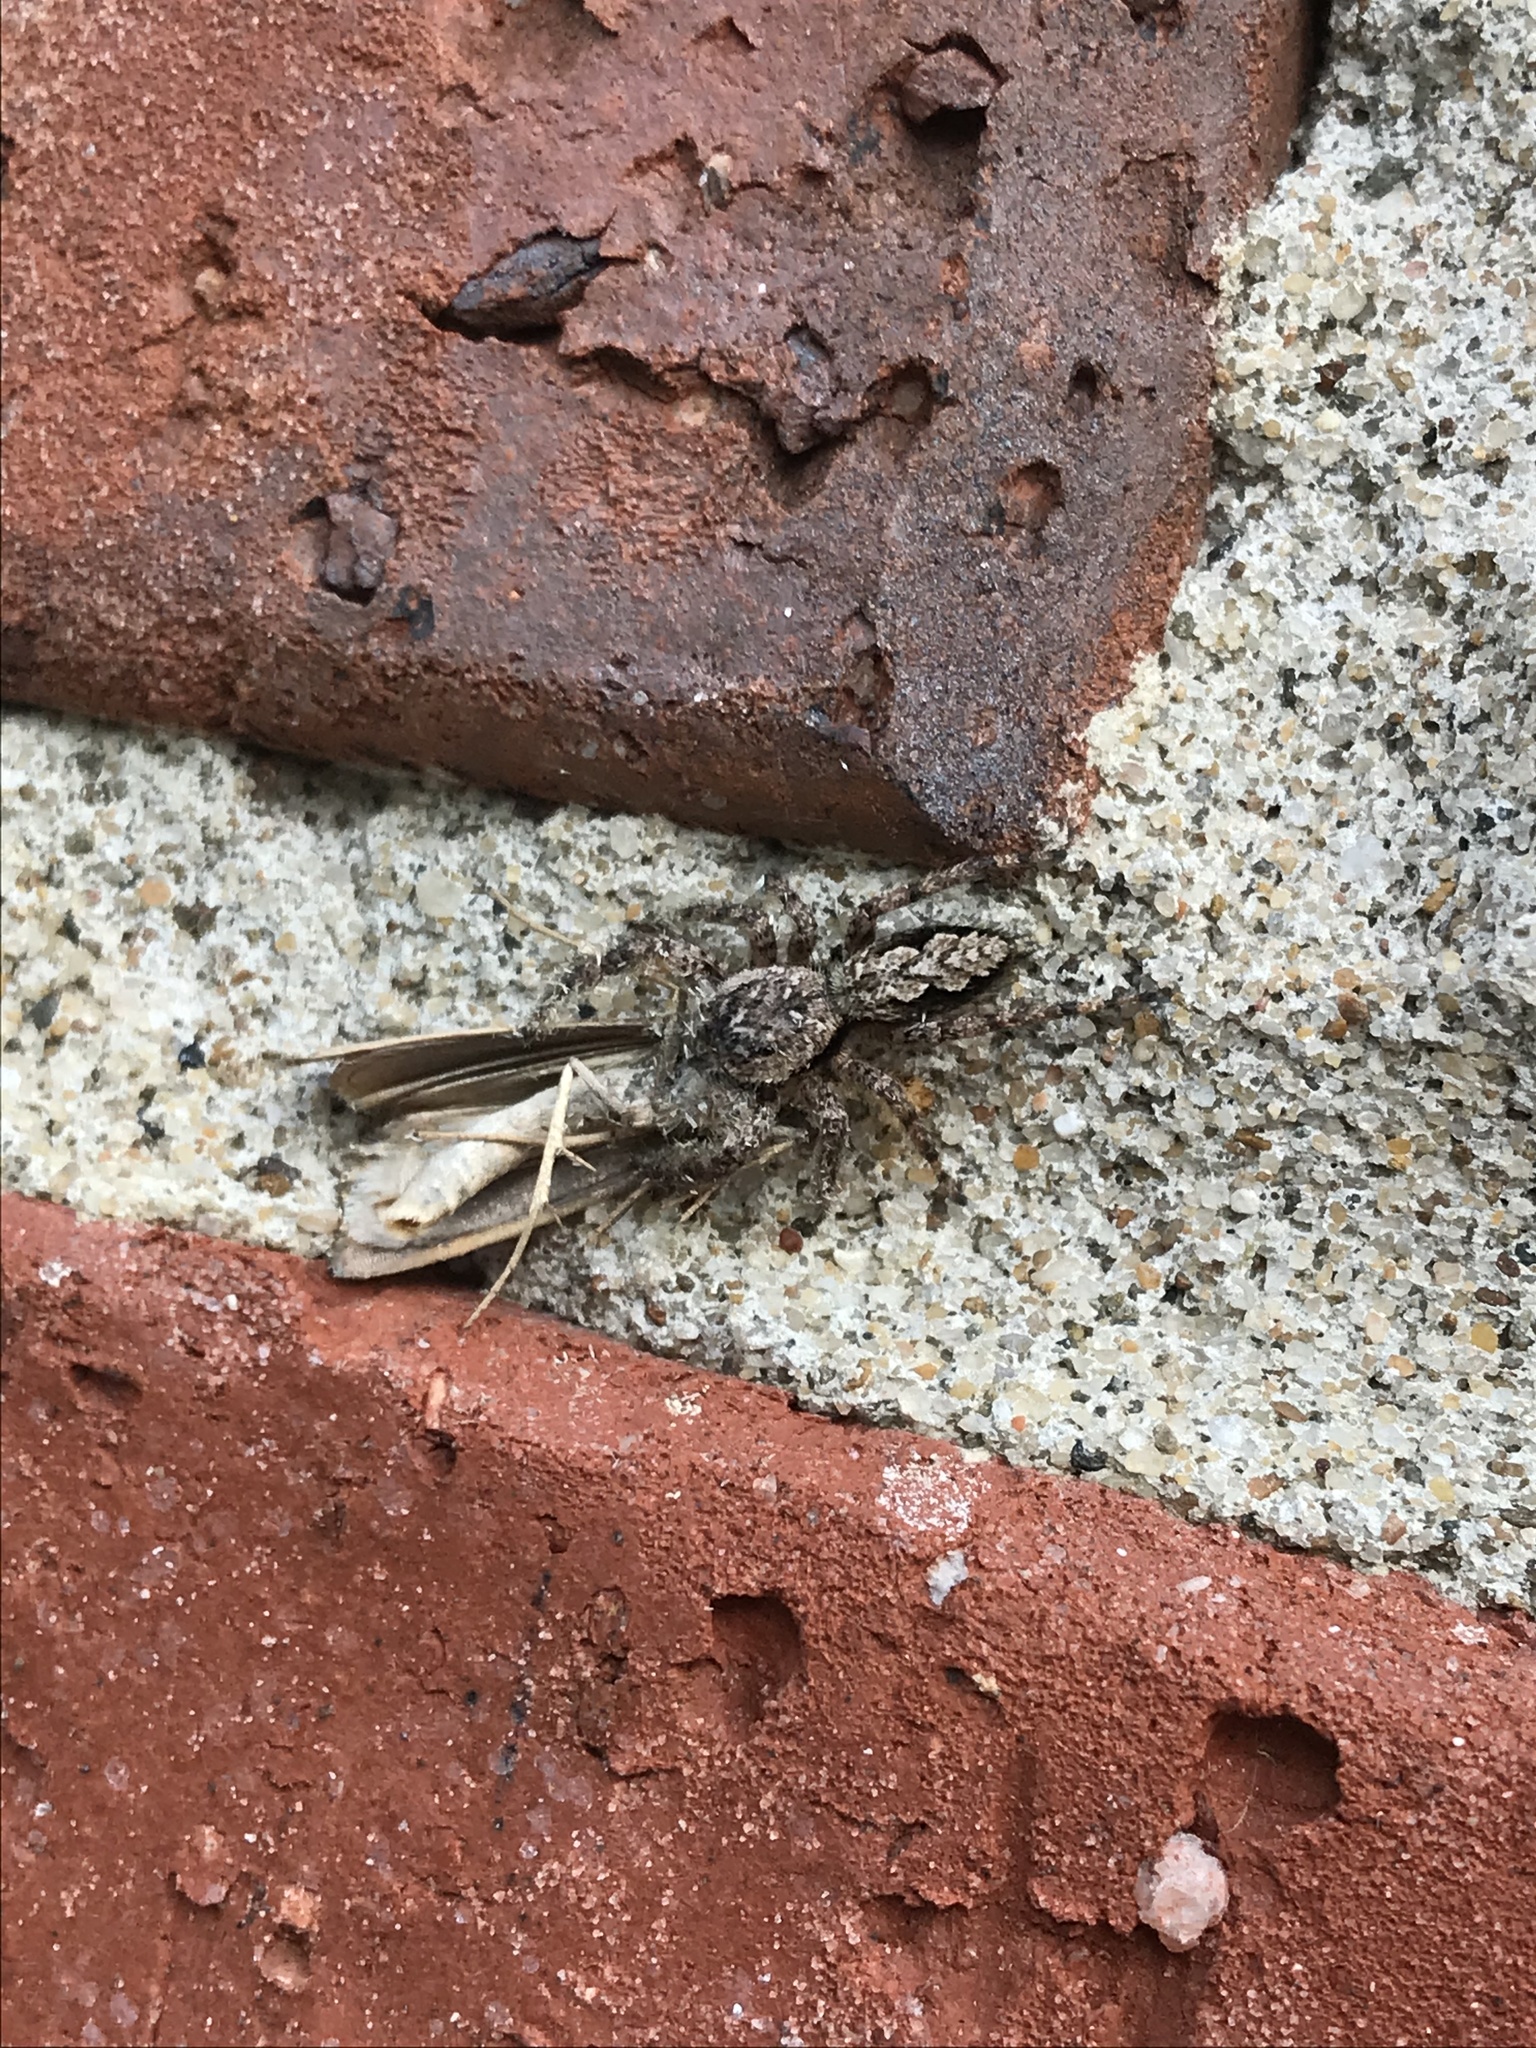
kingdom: Animalia
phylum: Arthropoda
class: Arachnida
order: Araneae
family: Salticidae
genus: Platycryptus
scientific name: Platycryptus undatus
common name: Tan jumping spider
